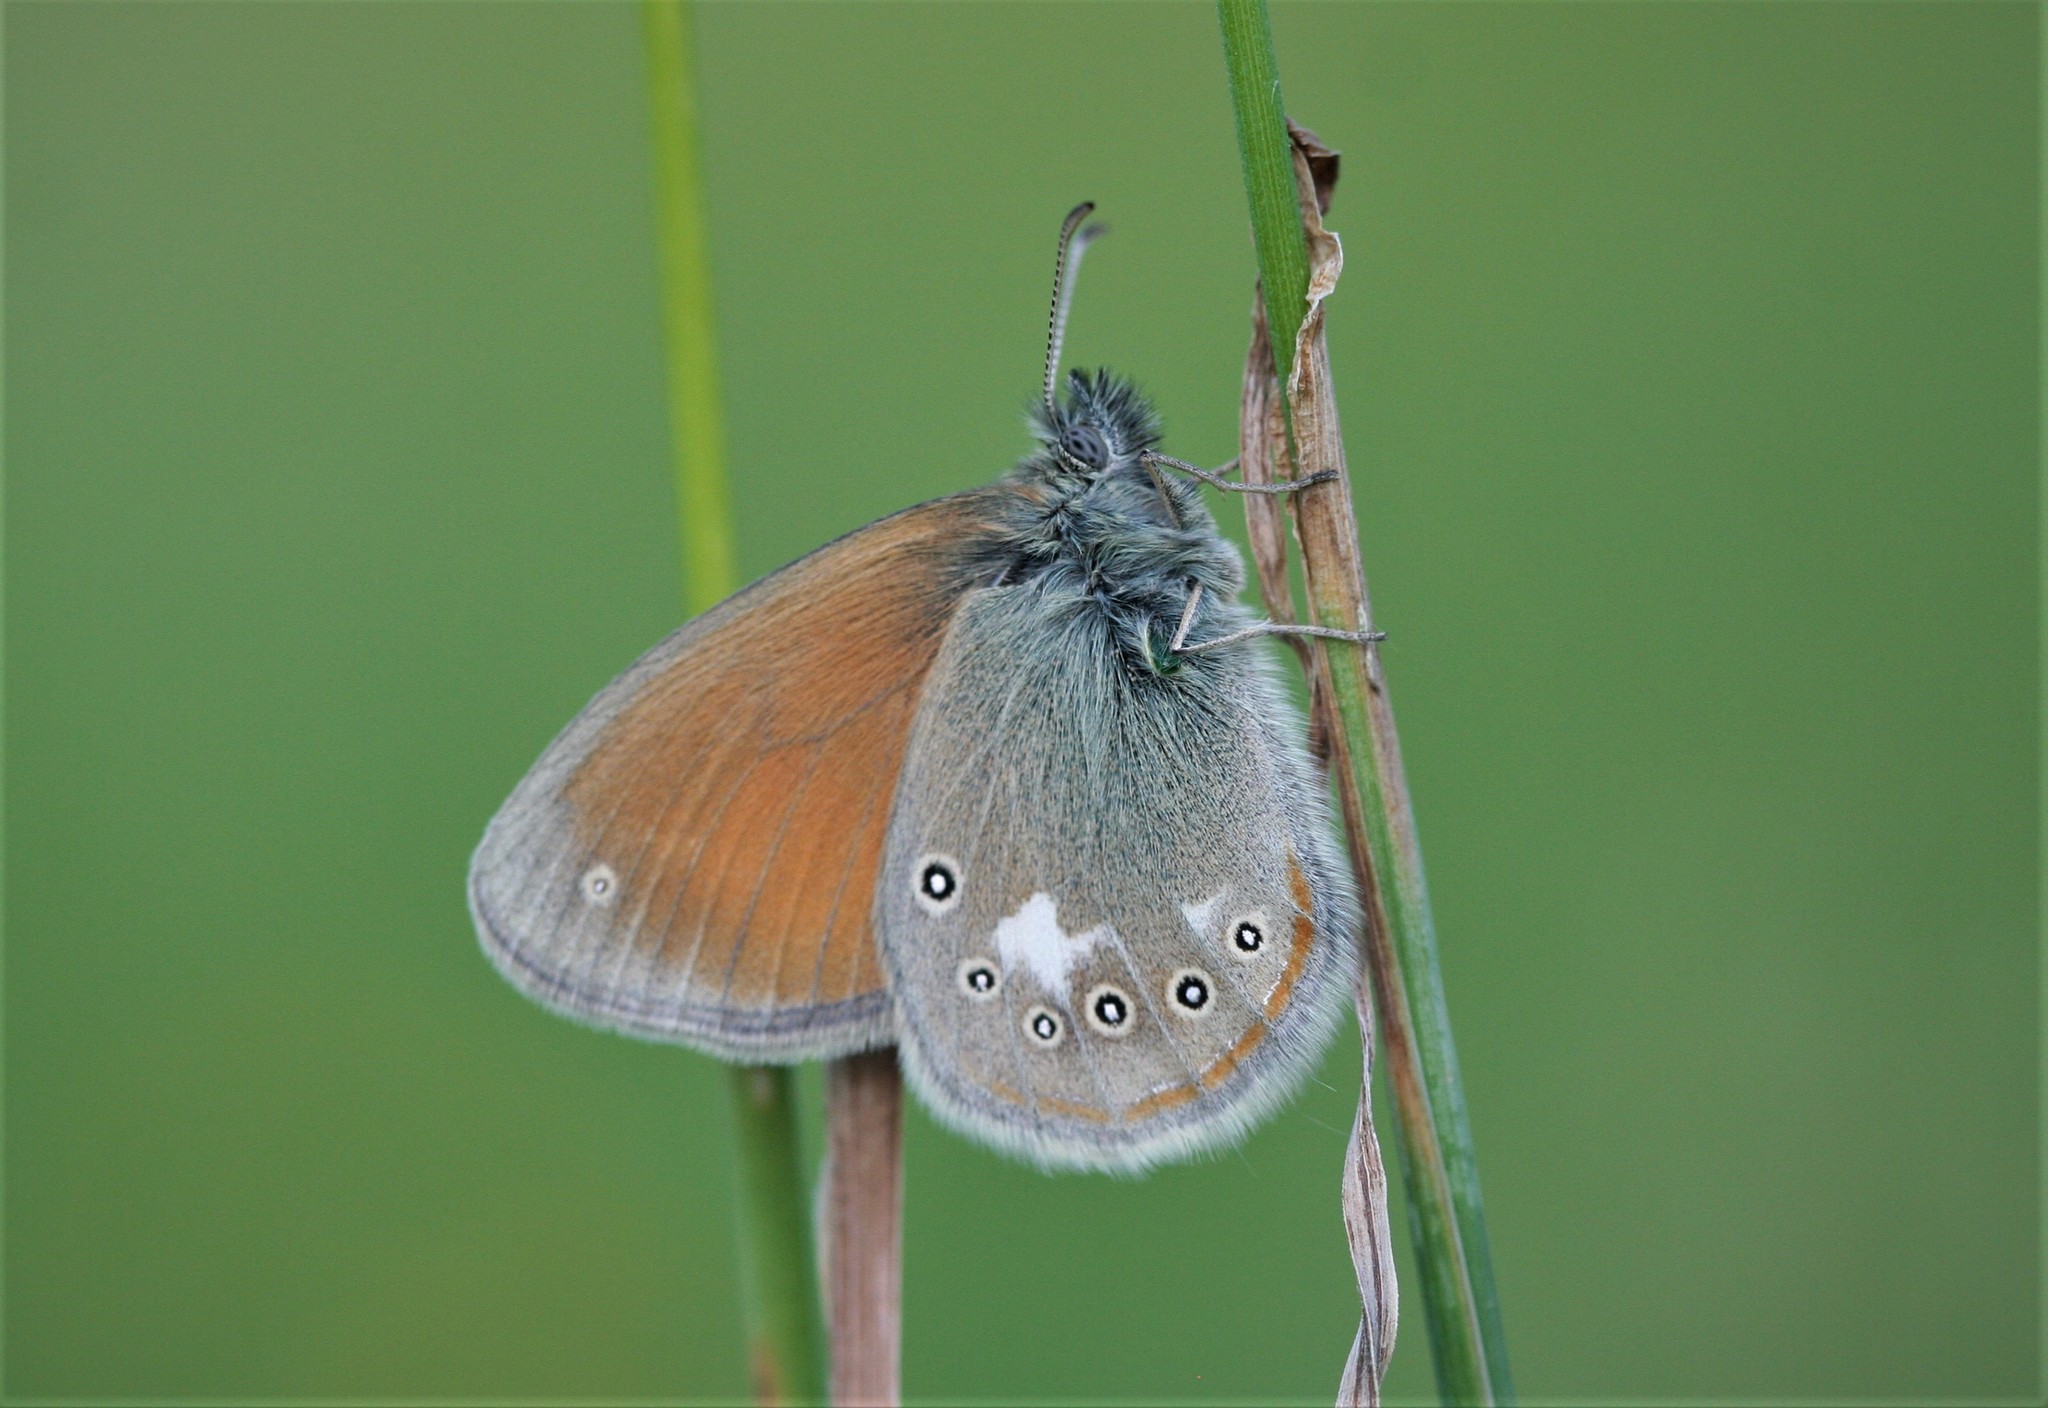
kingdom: Animalia
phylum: Arthropoda
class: Insecta
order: Lepidoptera
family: Nymphalidae
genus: Coenonympha
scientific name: Coenonympha iphis
